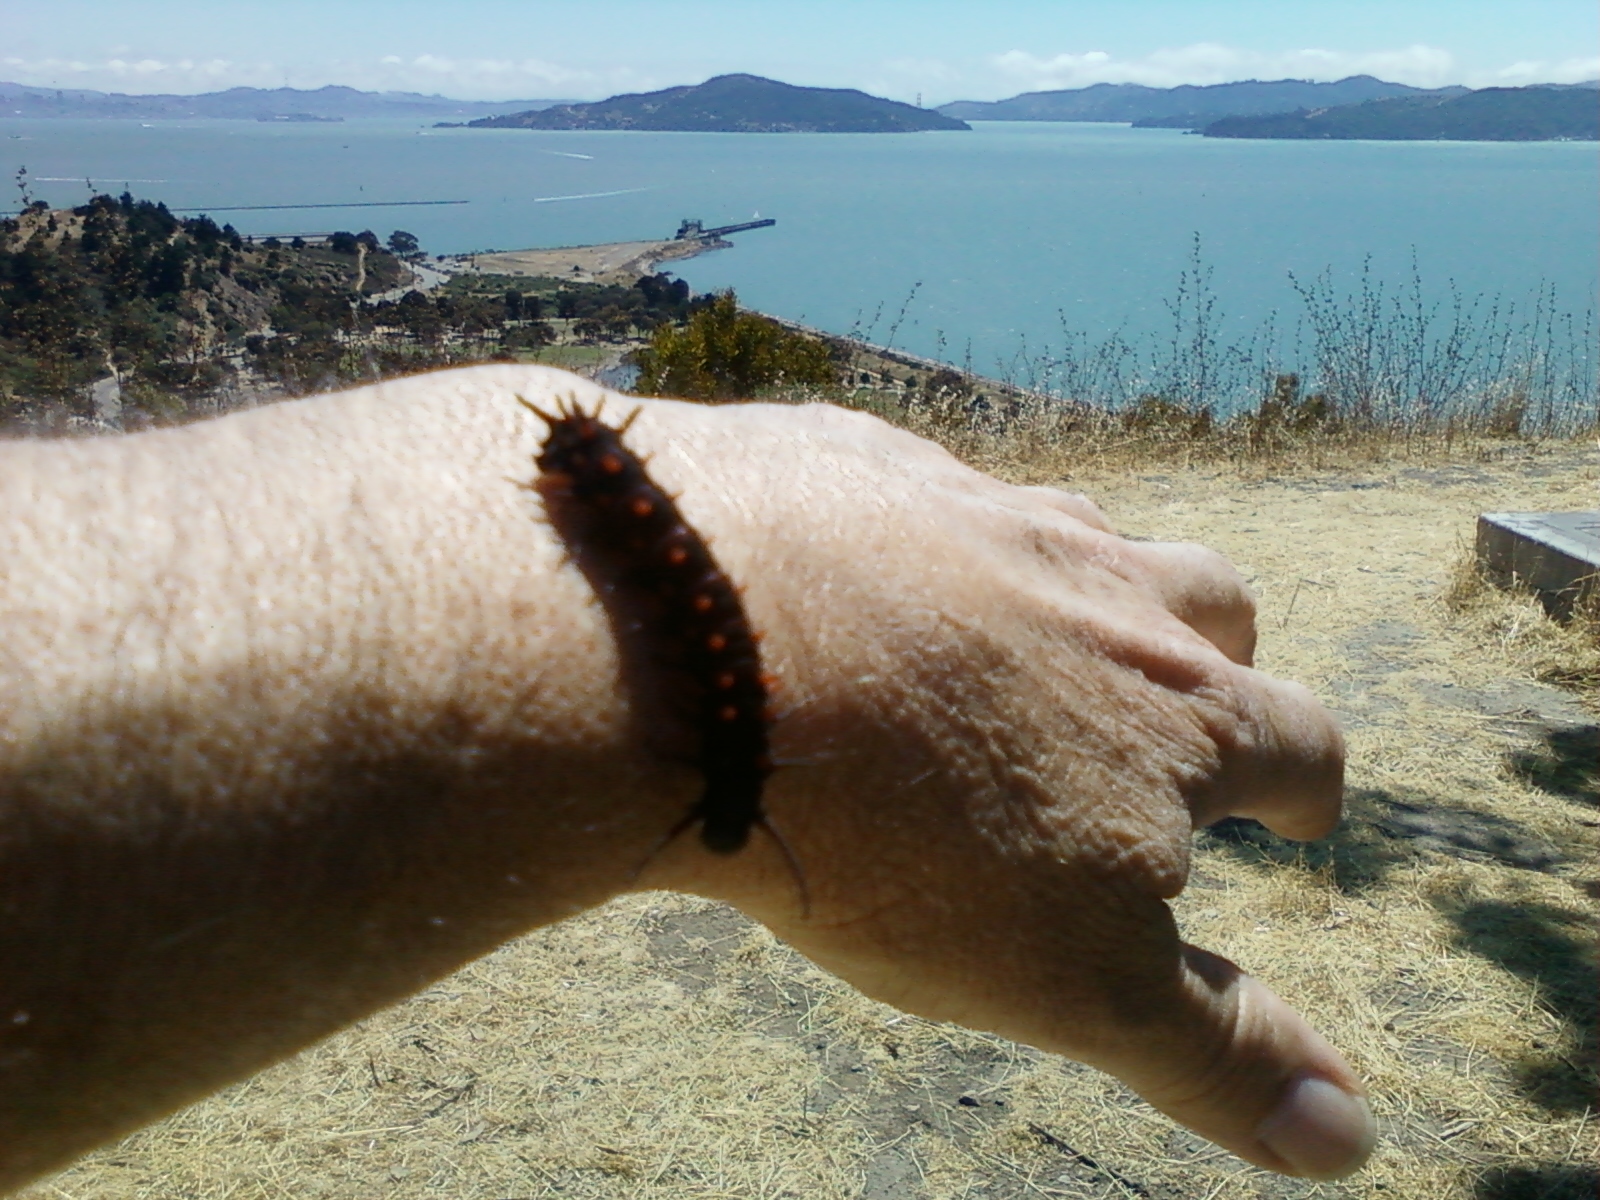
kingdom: Animalia
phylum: Arthropoda
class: Insecta
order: Lepidoptera
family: Papilionidae
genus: Battus
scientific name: Battus philenor
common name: Pipevine swallowtail
